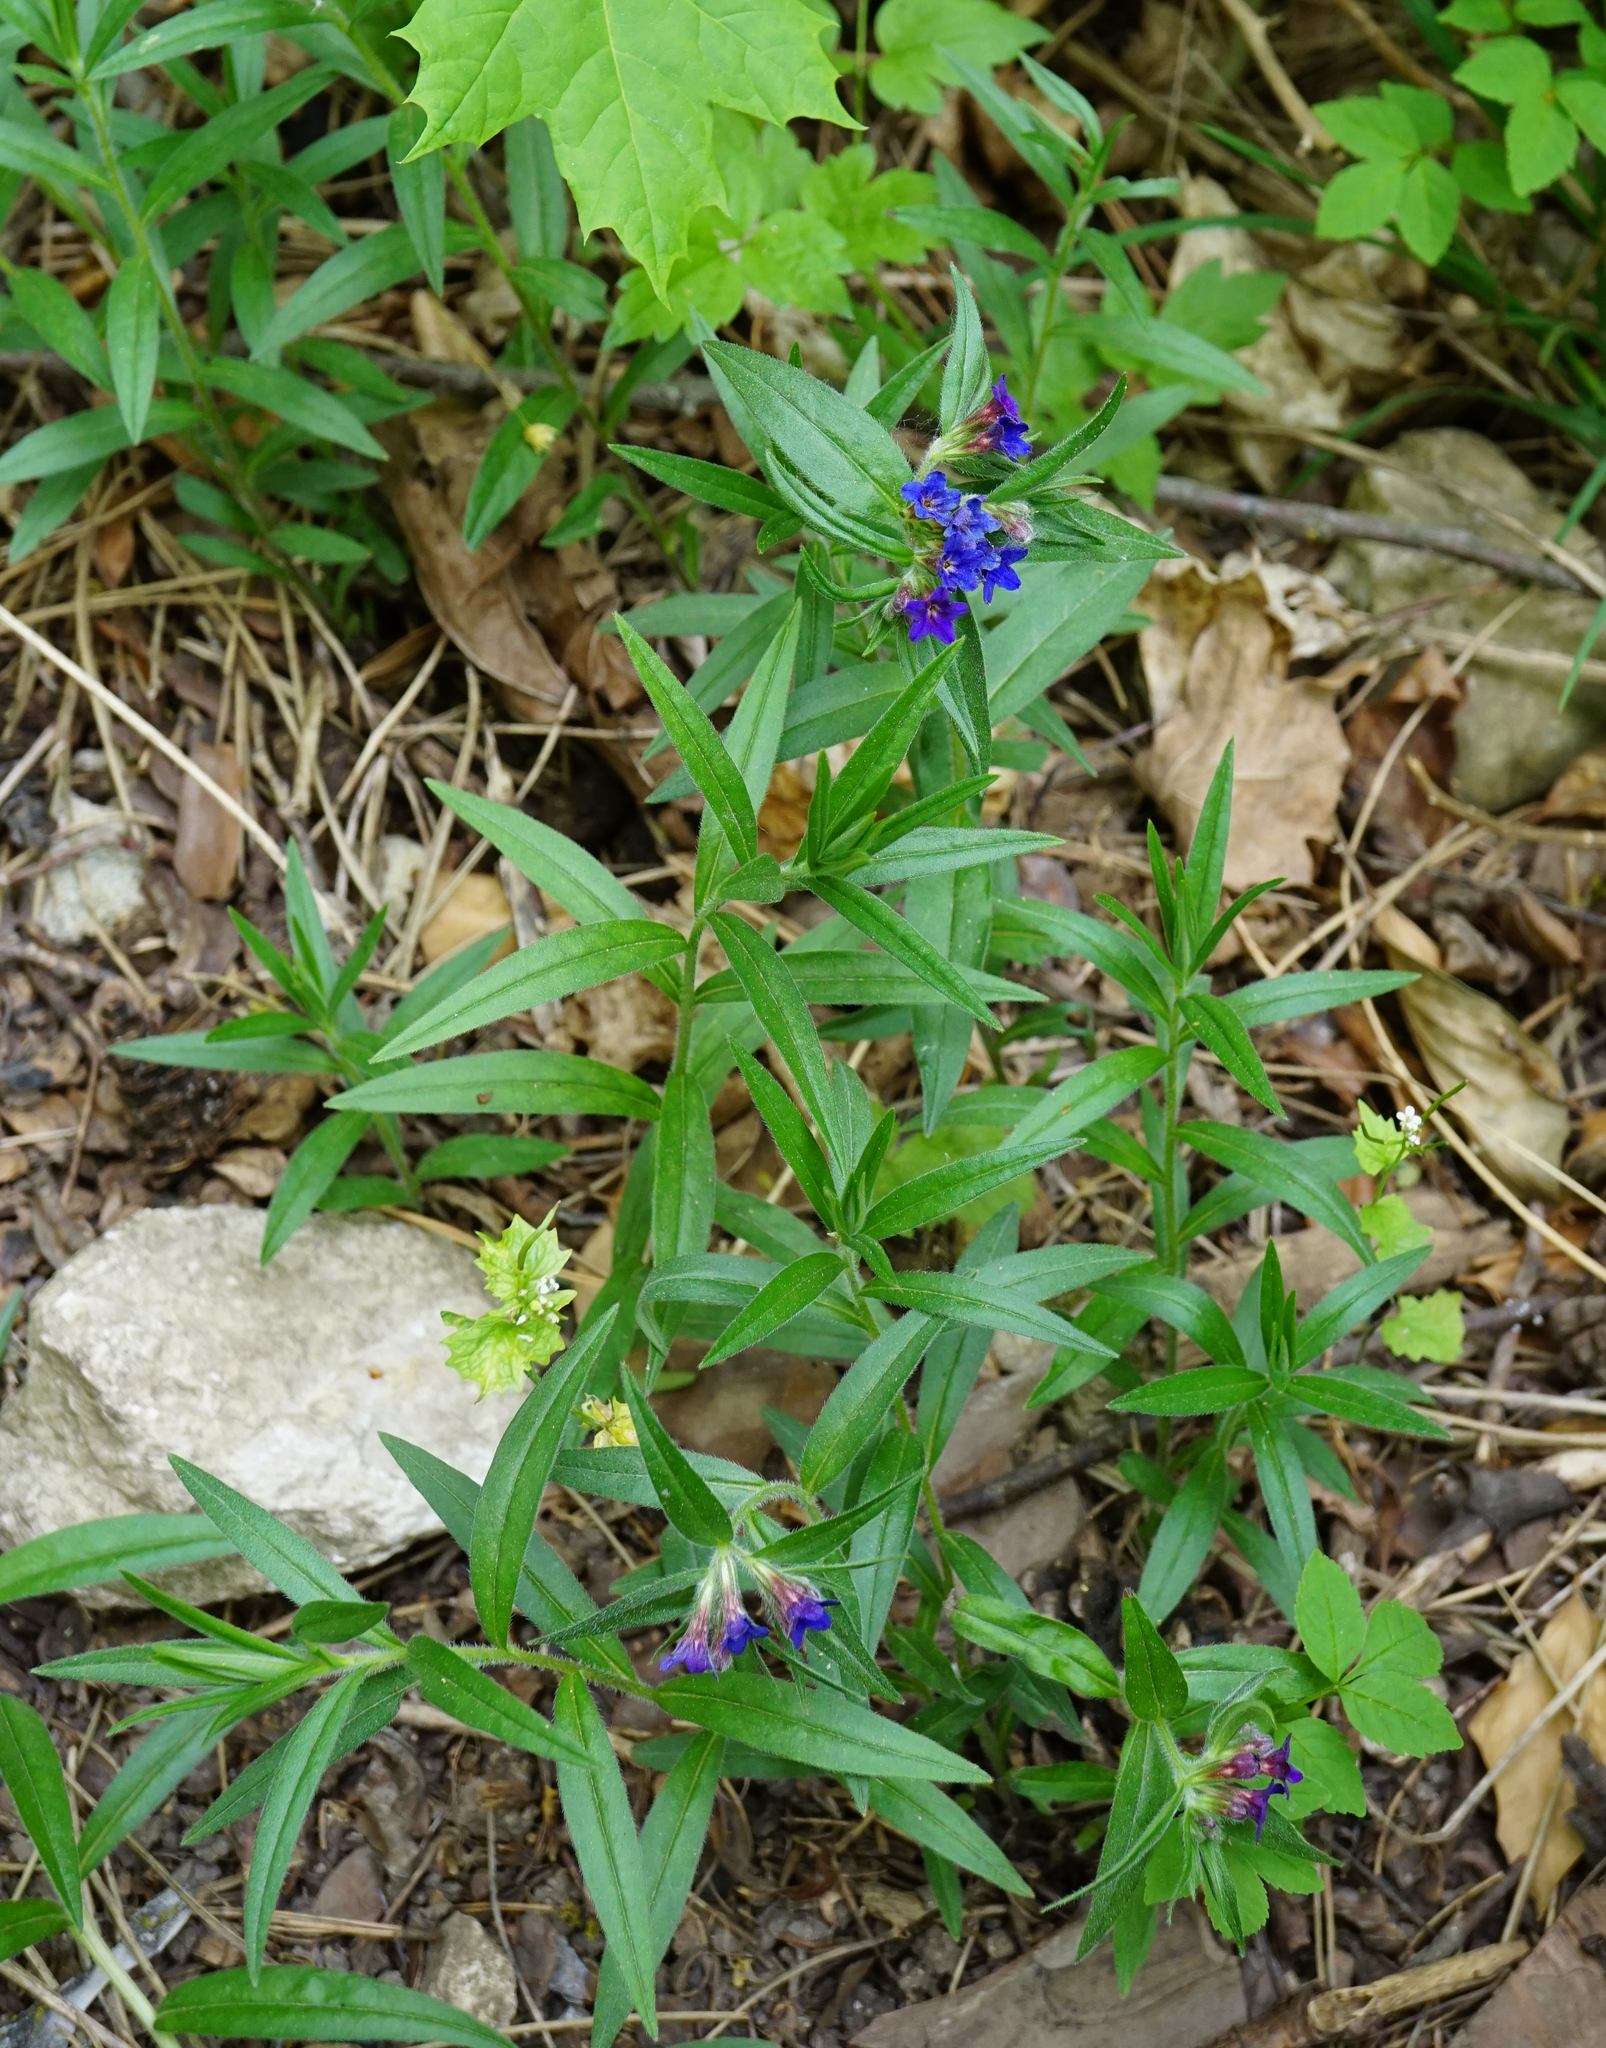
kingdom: Plantae
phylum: Tracheophyta
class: Magnoliopsida
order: Boraginales
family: Boraginaceae
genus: Aegonychon
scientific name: Aegonychon purpurocaeruleum
